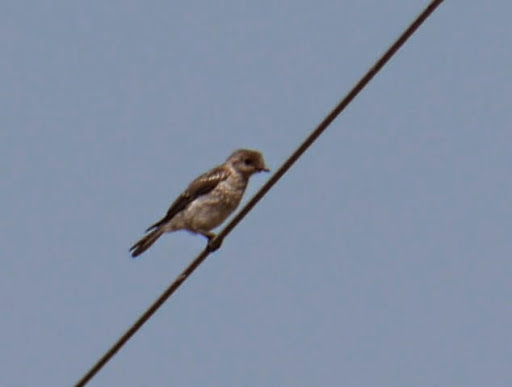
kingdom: Animalia
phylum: Chordata
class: Aves
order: Passeriformes
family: Turdidae
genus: Sialia
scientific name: Sialia sialis
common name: Eastern bluebird
